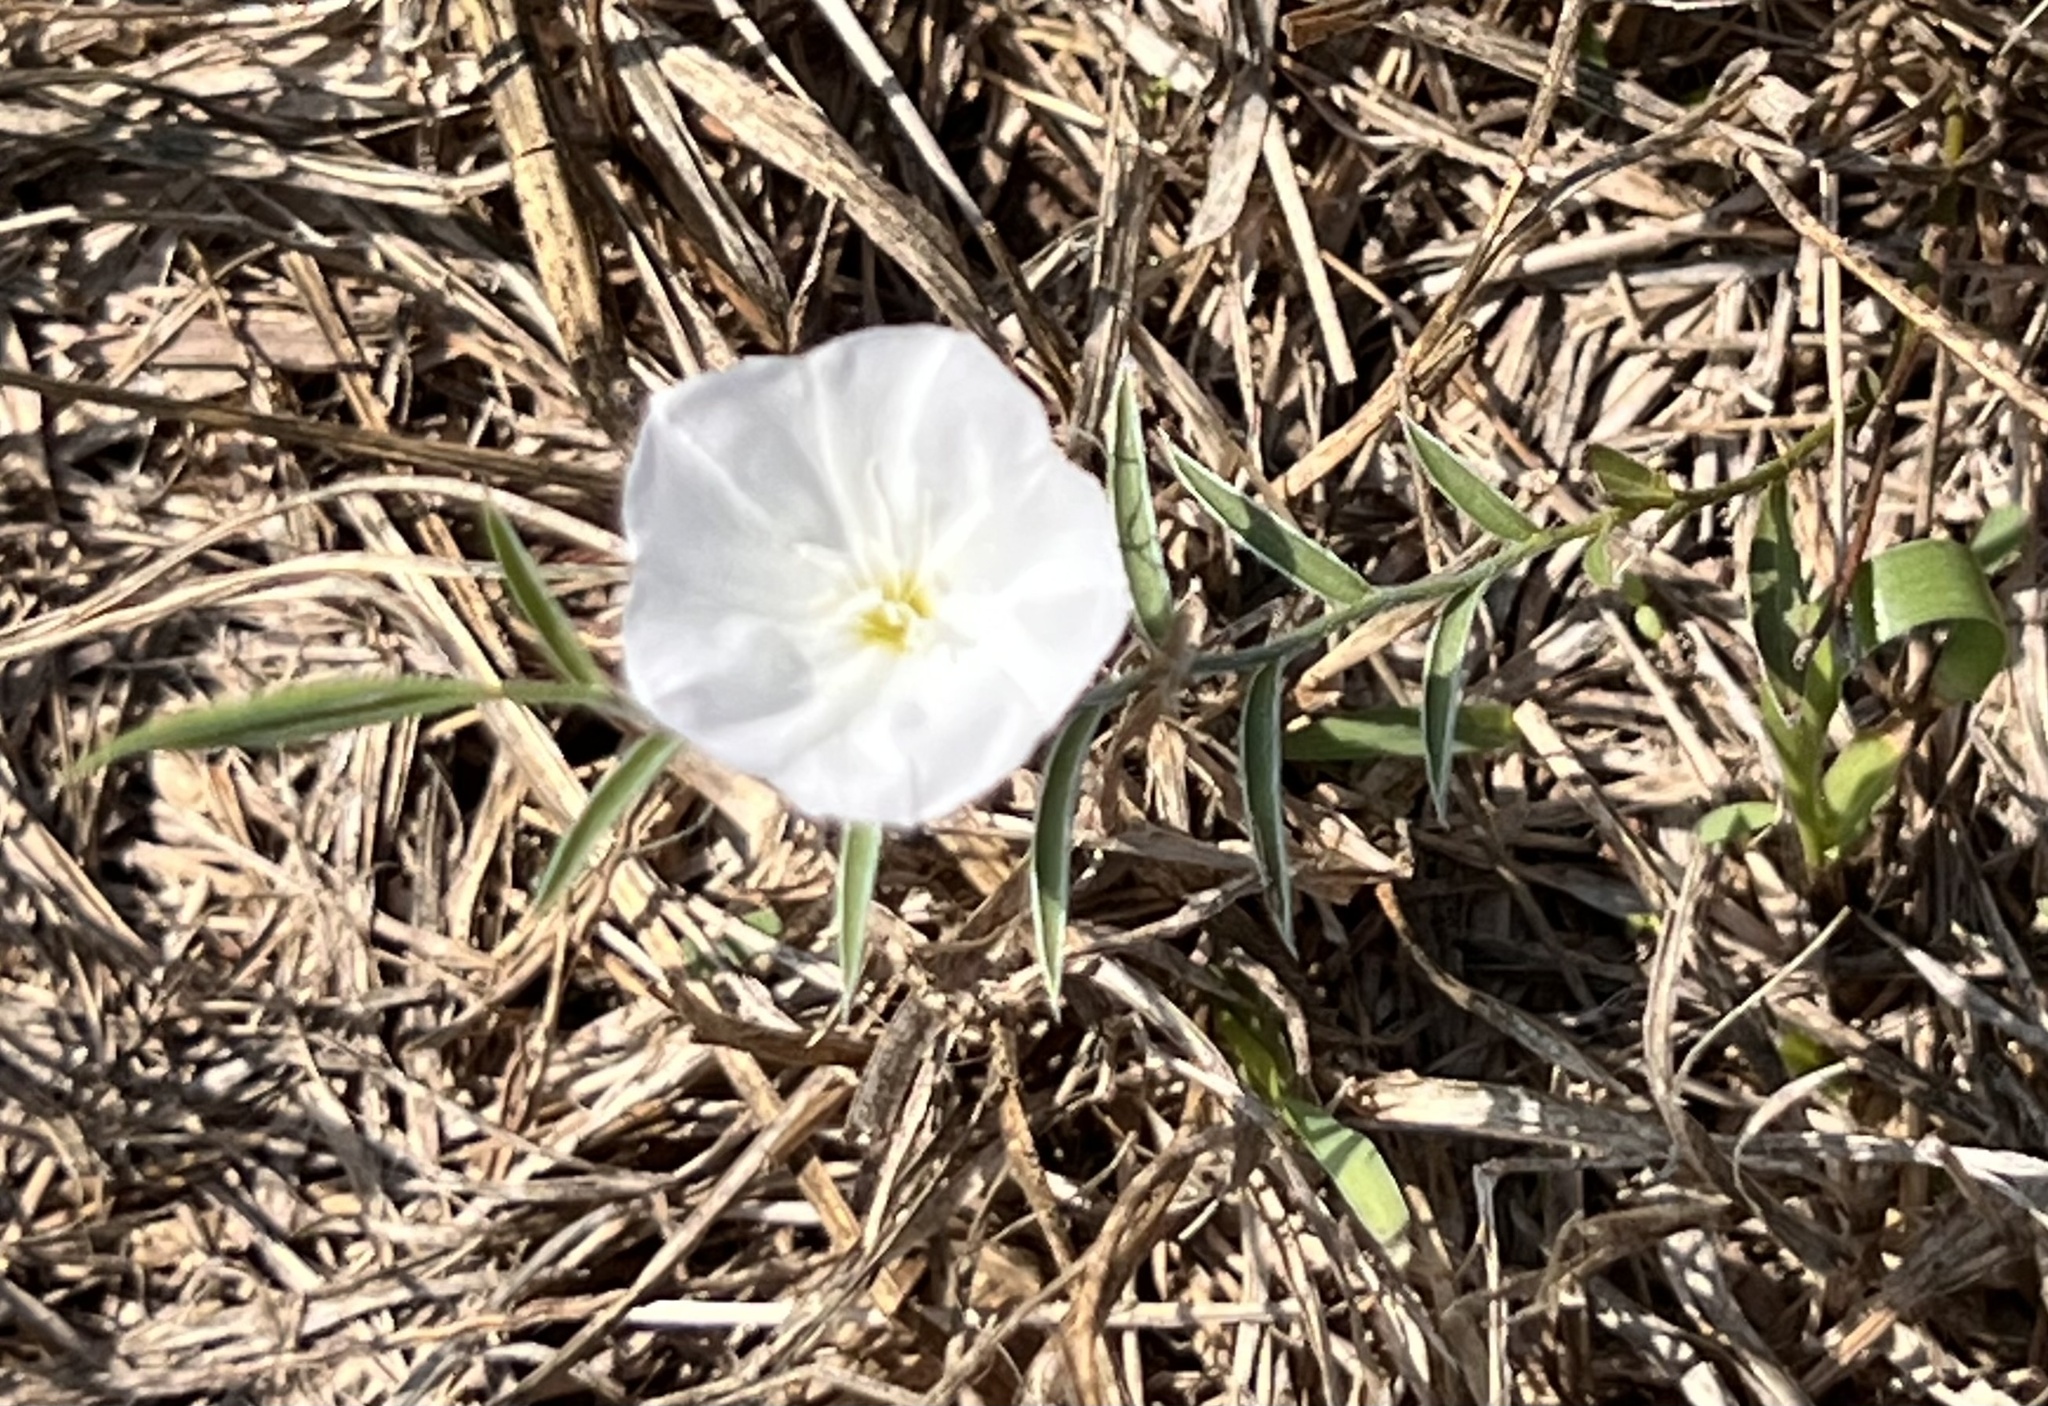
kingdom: Plantae
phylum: Tracheophyta
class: Magnoliopsida
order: Solanales
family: Convolvulaceae
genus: Evolvulus
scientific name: Evolvulus sericeus
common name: Blue dots
